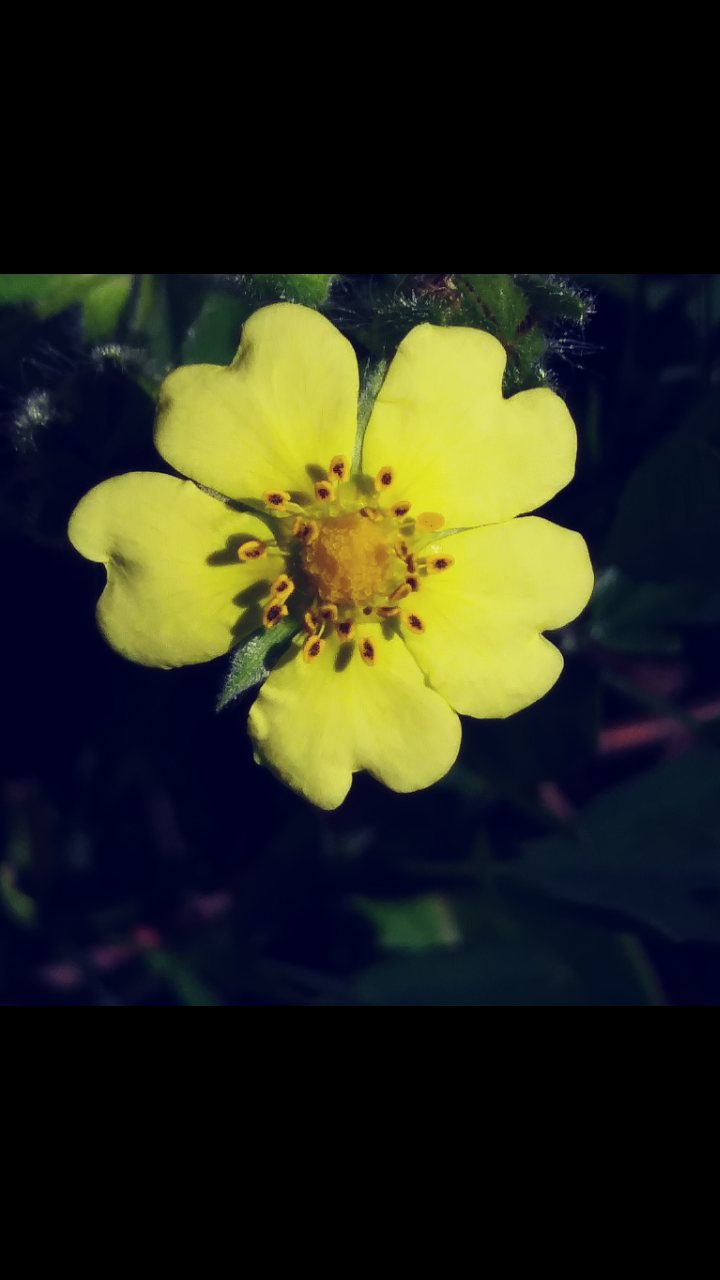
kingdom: Plantae
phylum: Tracheophyta
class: Magnoliopsida
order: Rosales
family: Rosaceae
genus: Potentilla
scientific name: Potentilla recta
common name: Sulphur cinquefoil
